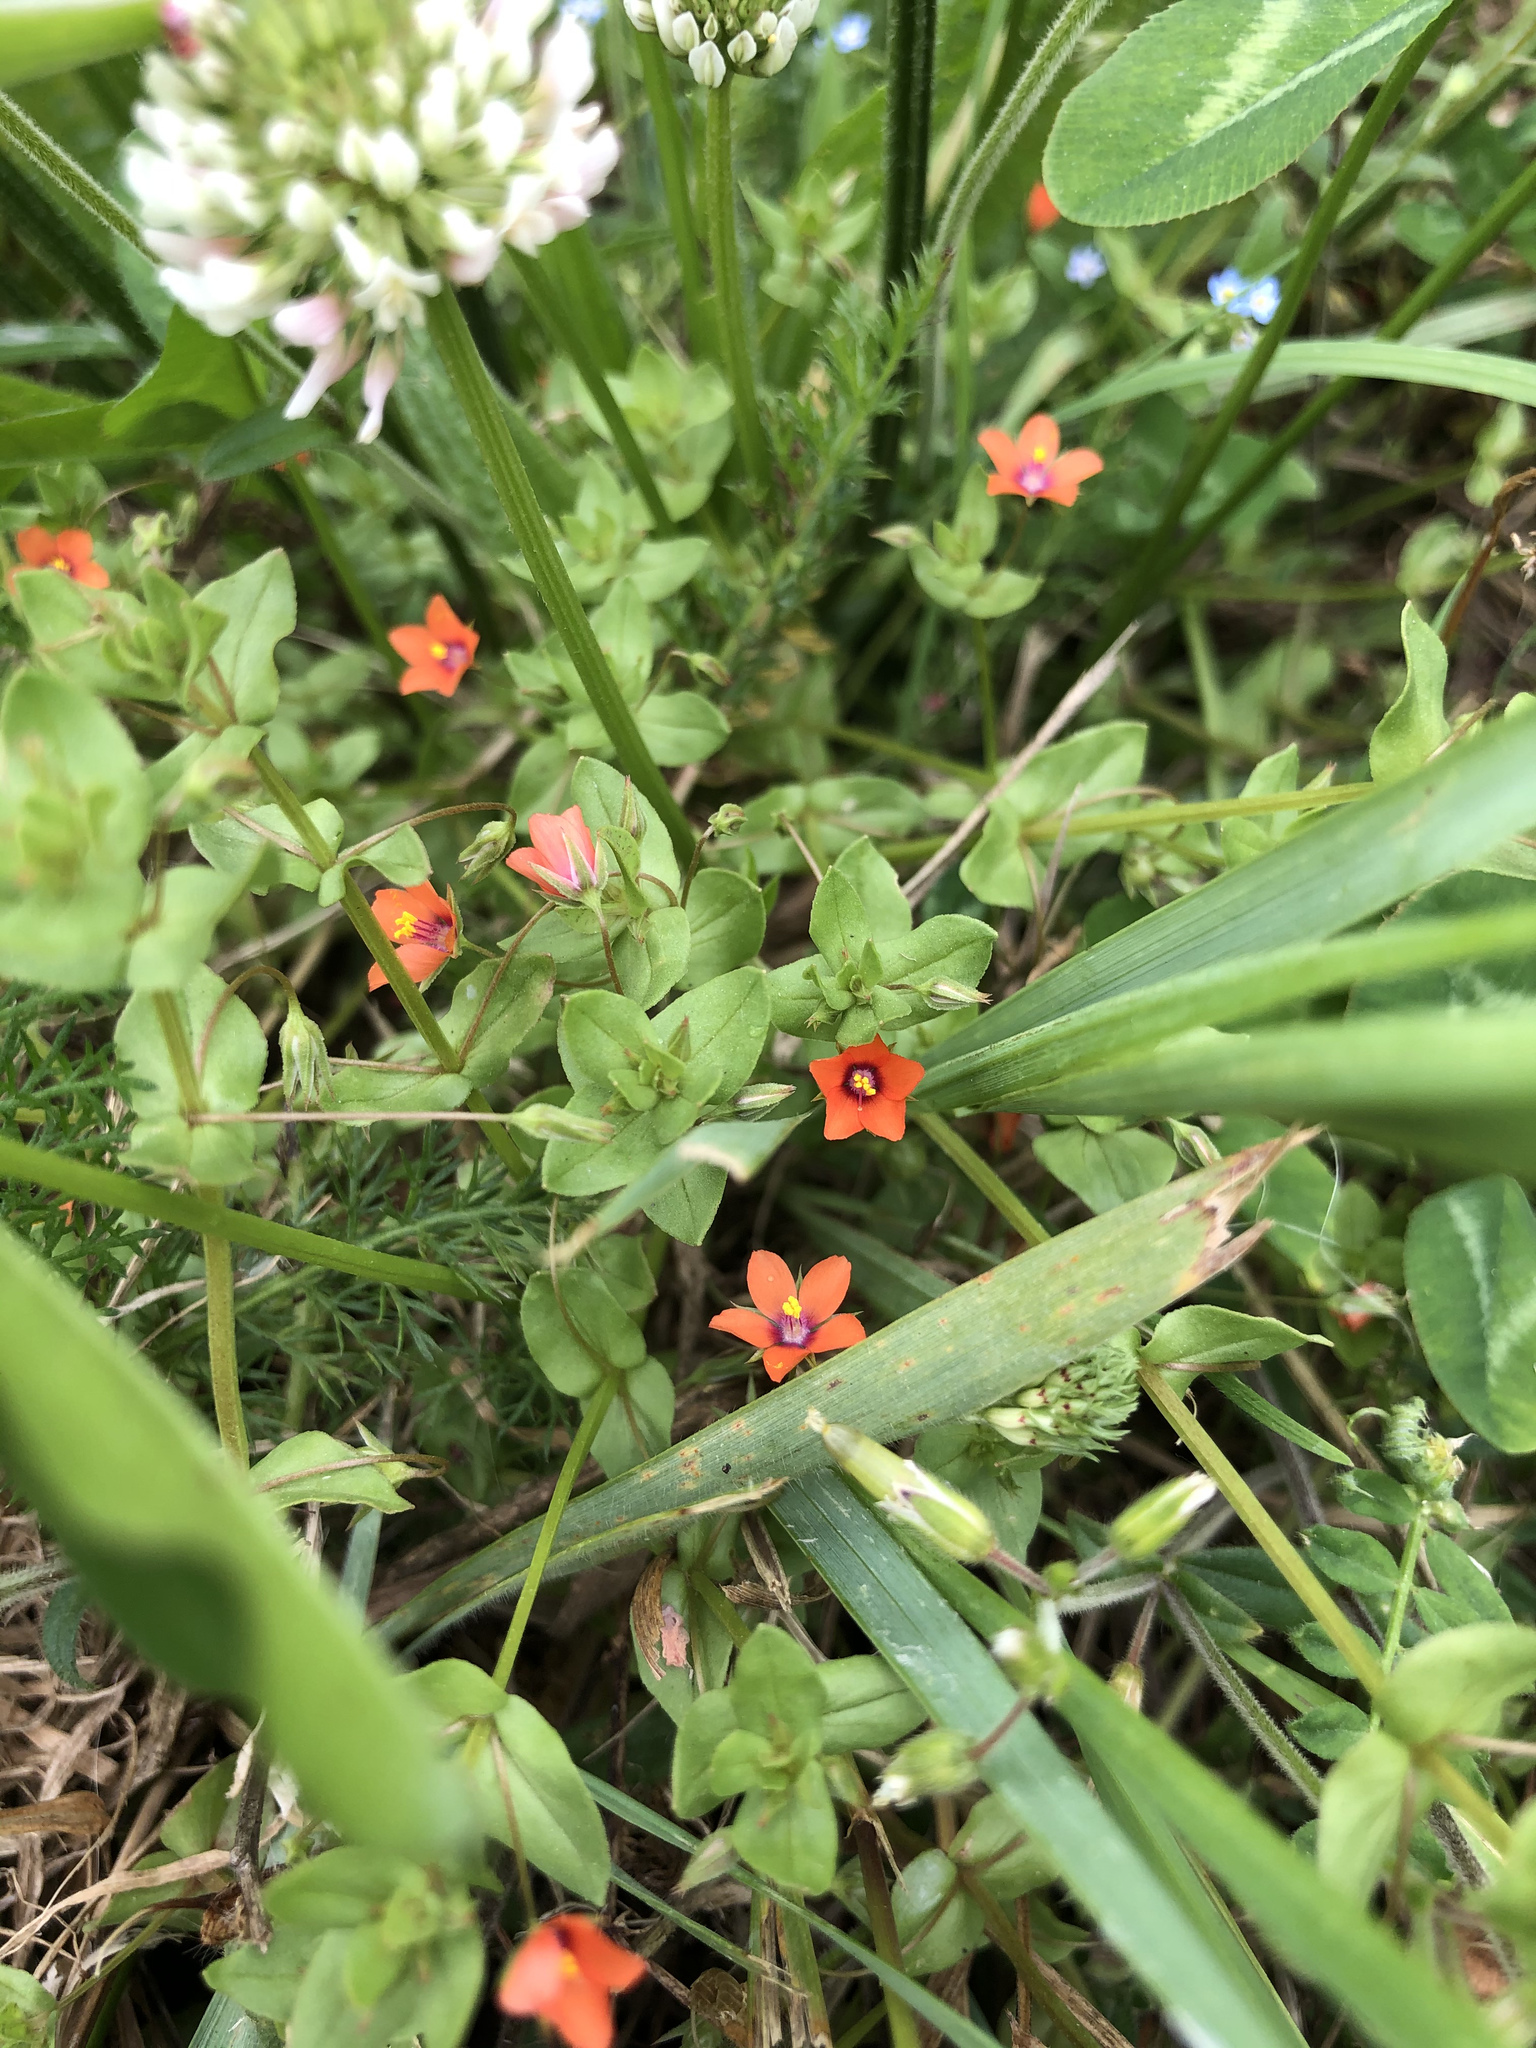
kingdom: Plantae
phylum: Tracheophyta
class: Magnoliopsida
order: Ericales
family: Primulaceae
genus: Lysimachia
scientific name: Lysimachia arvensis
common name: Scarlet pimpernel
